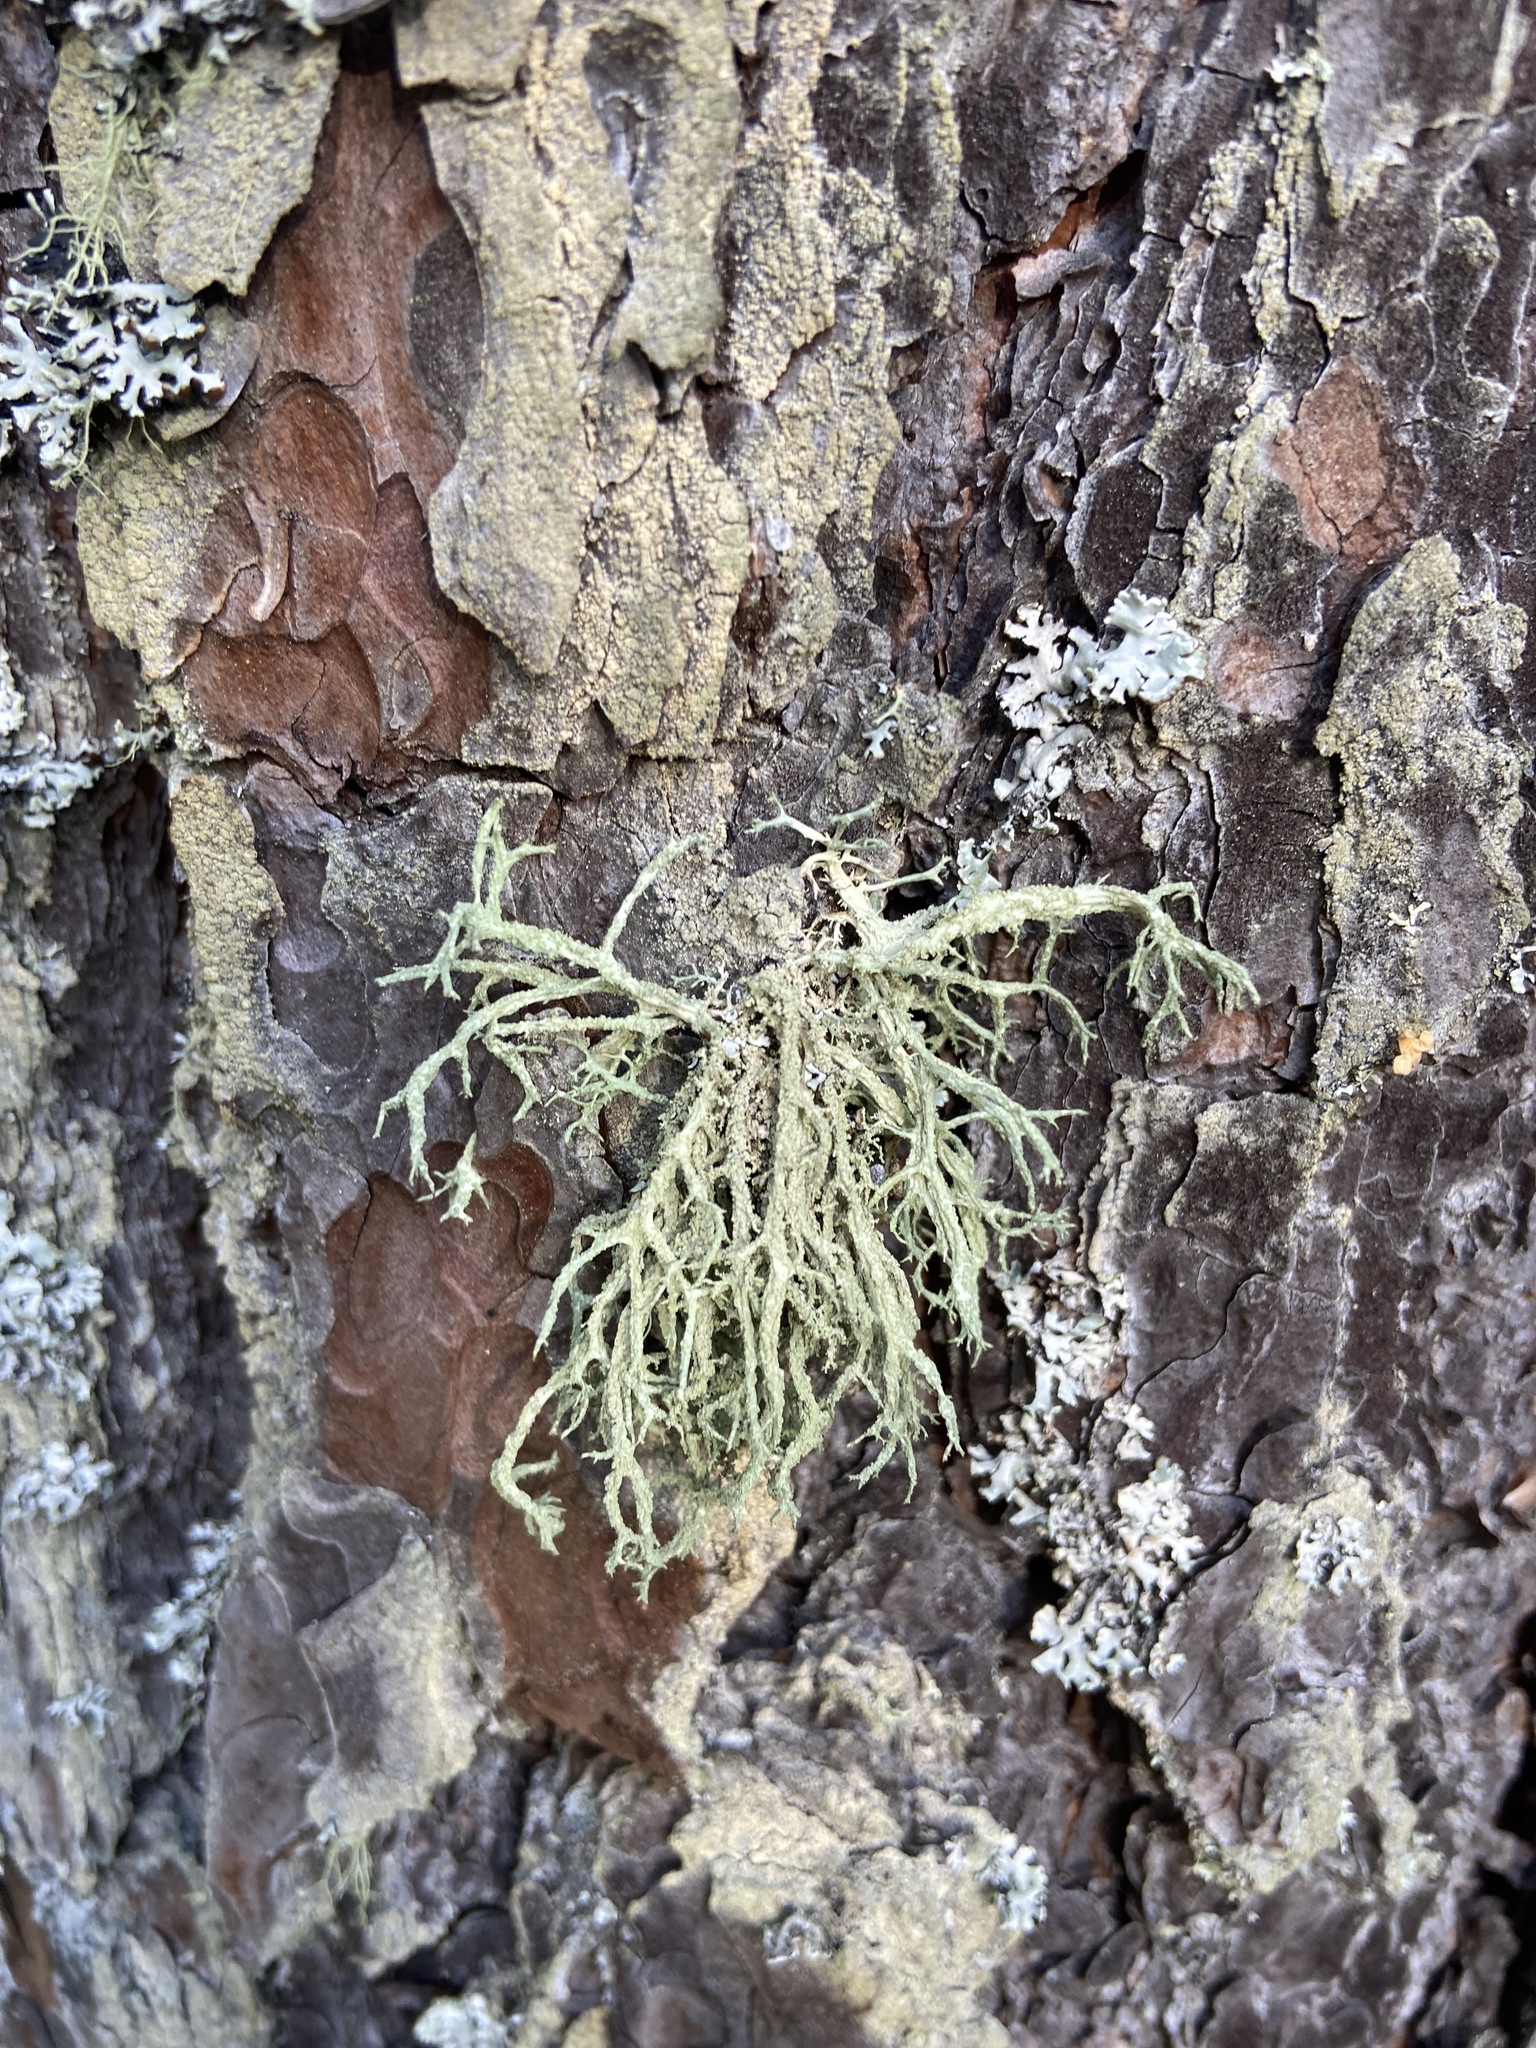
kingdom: Fungi
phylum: Ascomycota
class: Lecanoromycetes
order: Lecanorales
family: Parmeliaceae
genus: Evernia
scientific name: Evernia mesomorpha
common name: Boreal oak moss lichen
